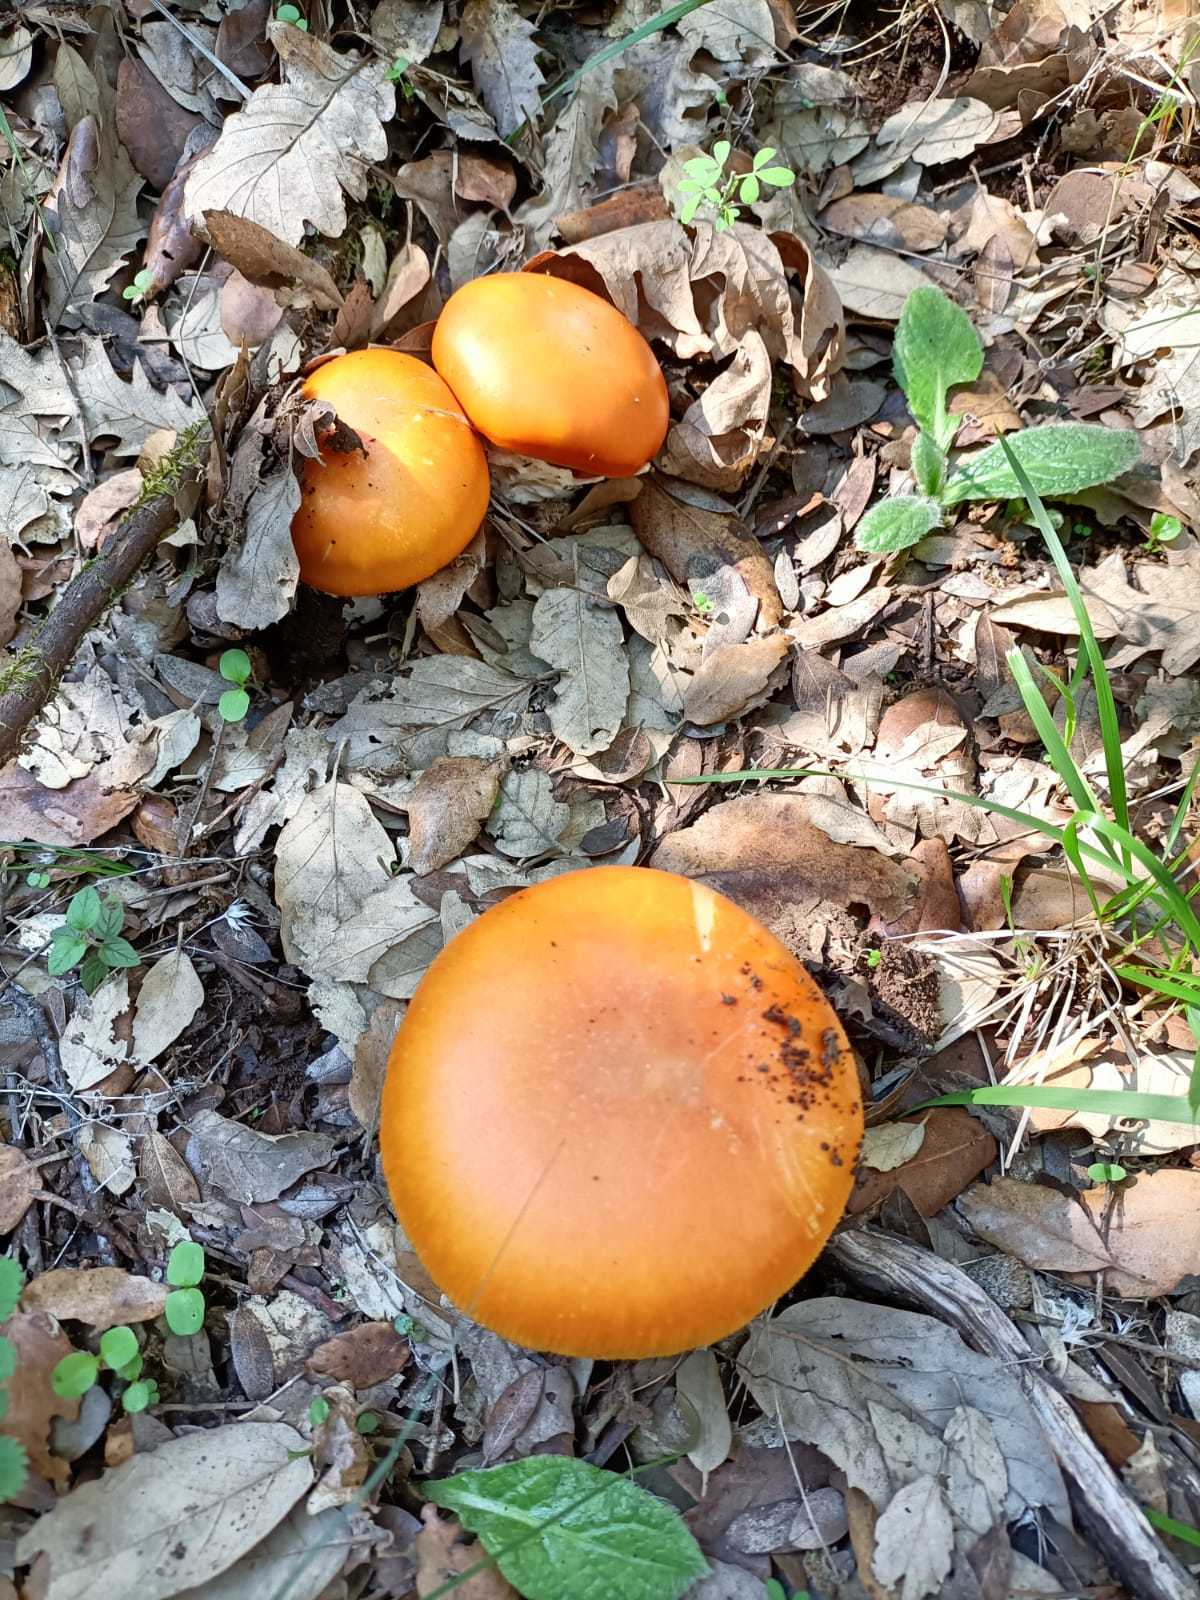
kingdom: Fungi
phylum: Basidiomycota
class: Agaricomycetes
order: Agaricales
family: Amanitaceae
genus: Amanita
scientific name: Amanita caesarea
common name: Caesar's amanita
